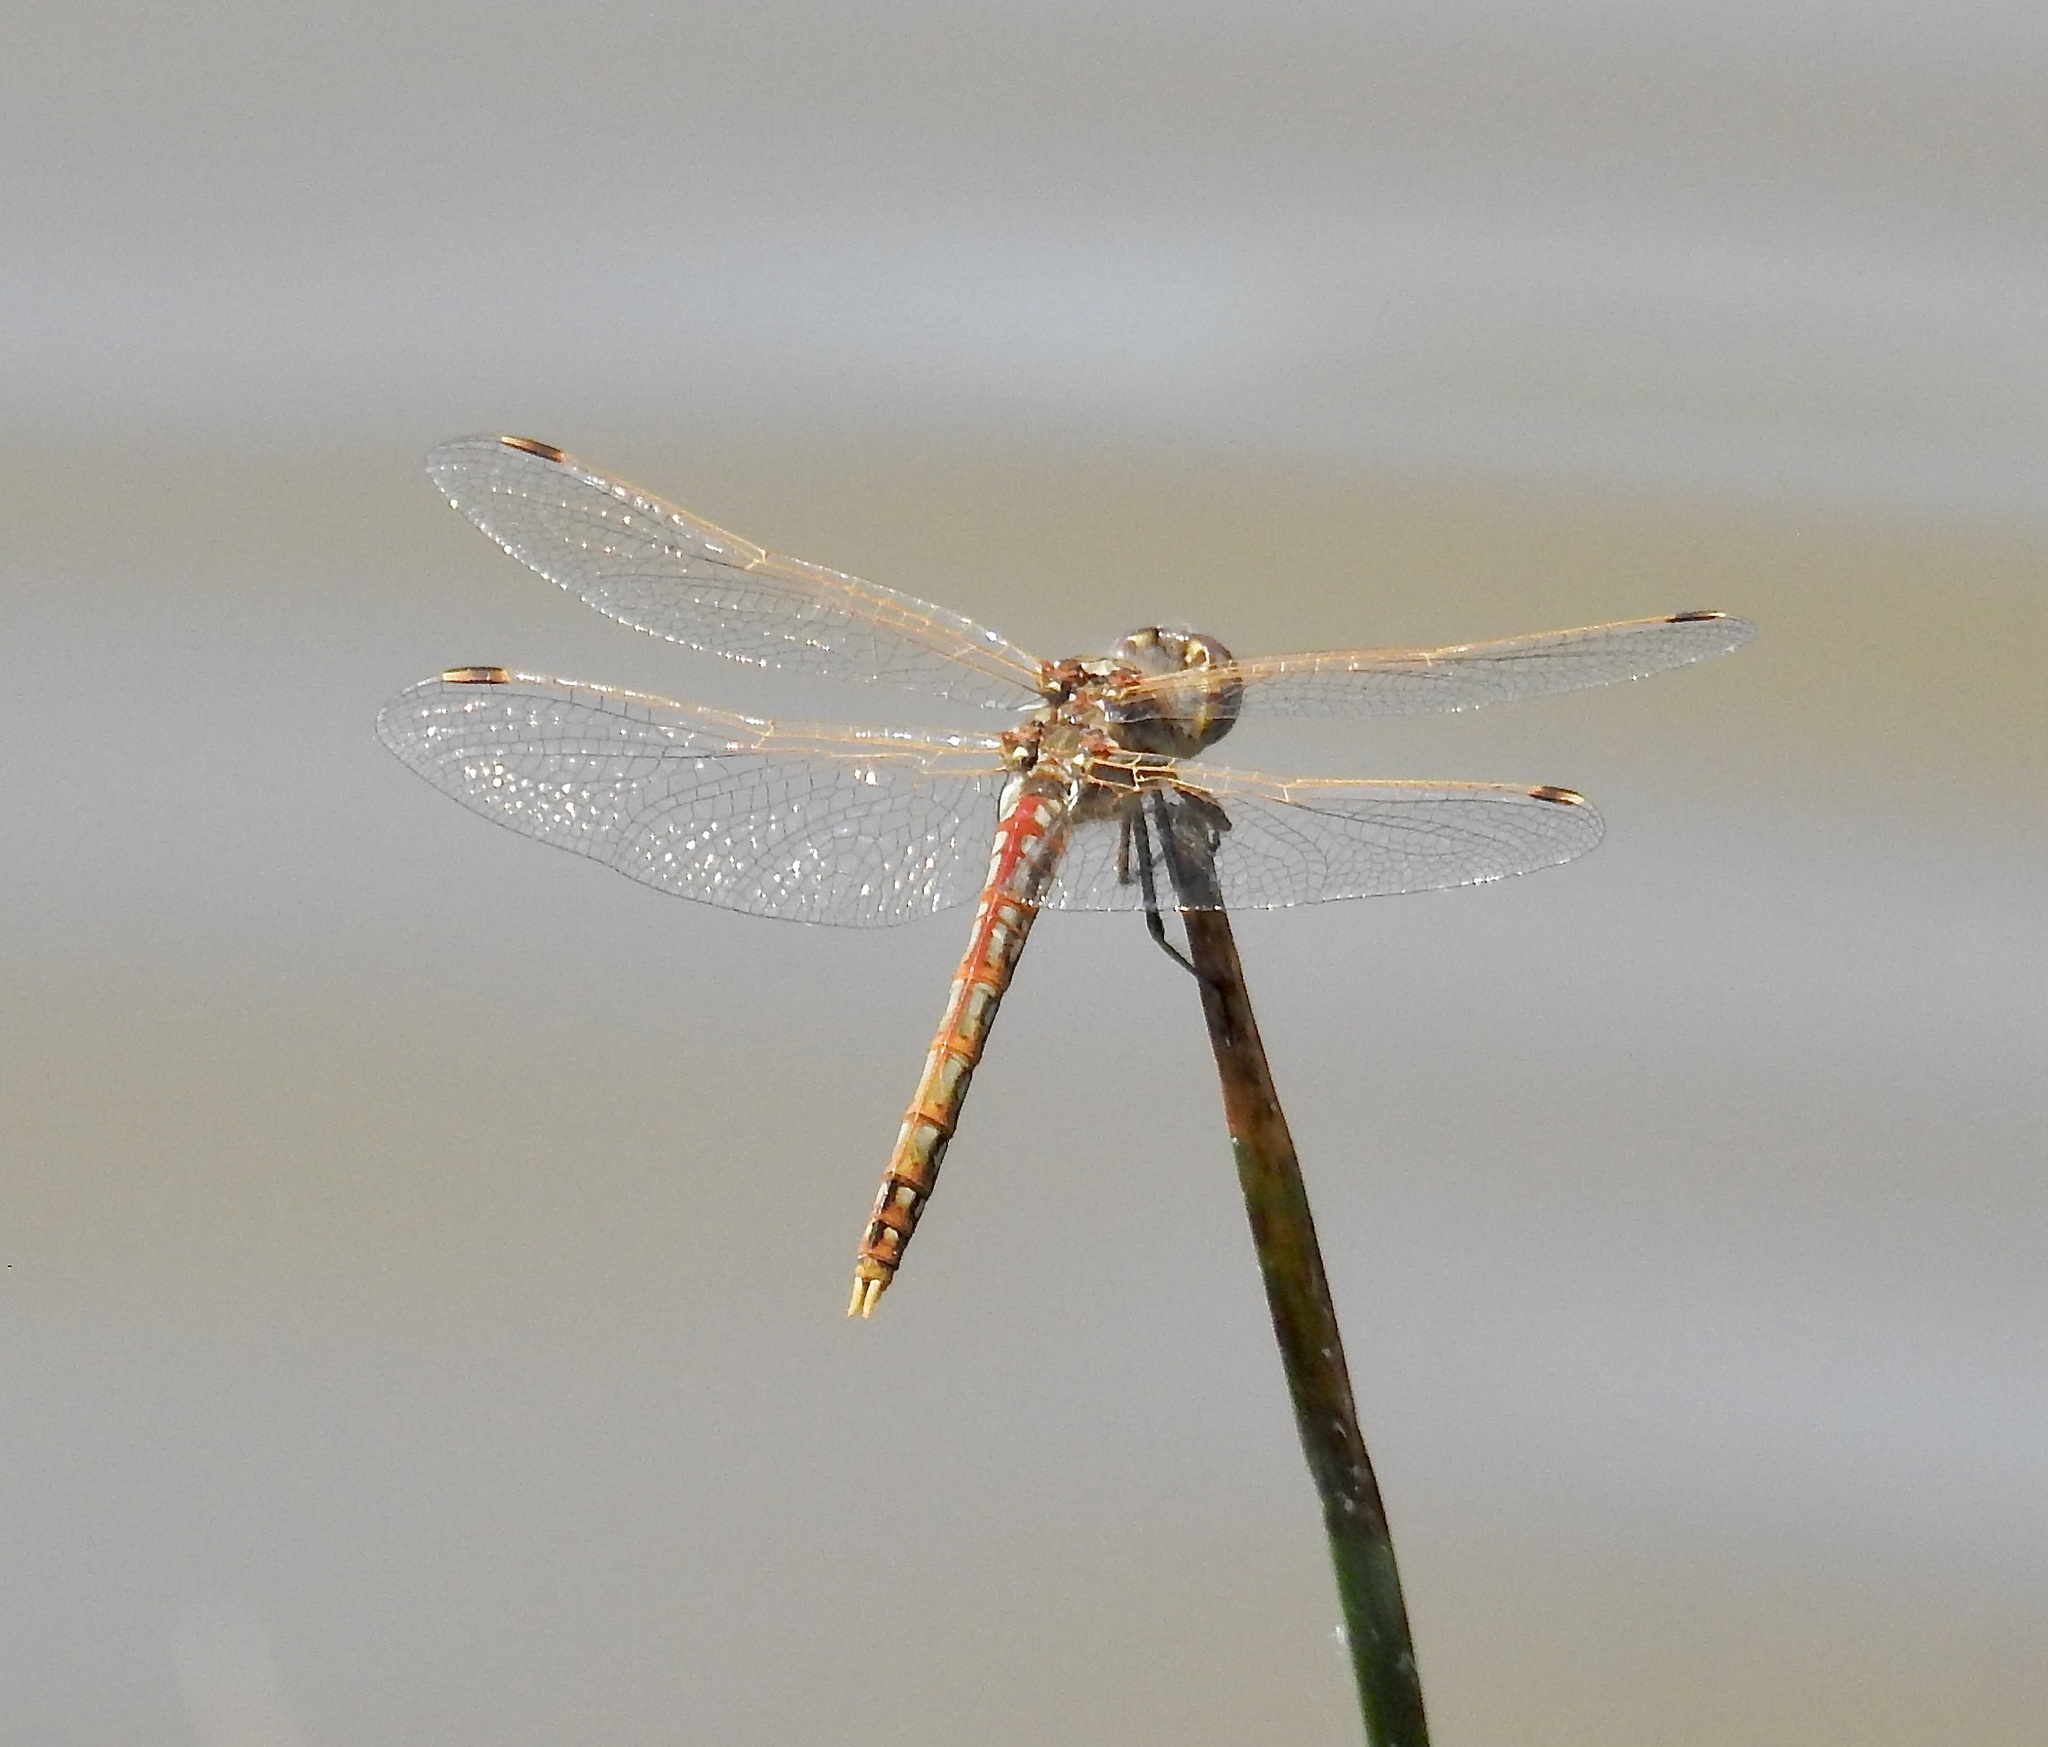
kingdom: Animalia
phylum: Arthropoda
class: Insecta
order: Odonata
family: Libellulidae
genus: Sympetrum
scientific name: Sympetrum corruptum
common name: Variegated meadowhawk
